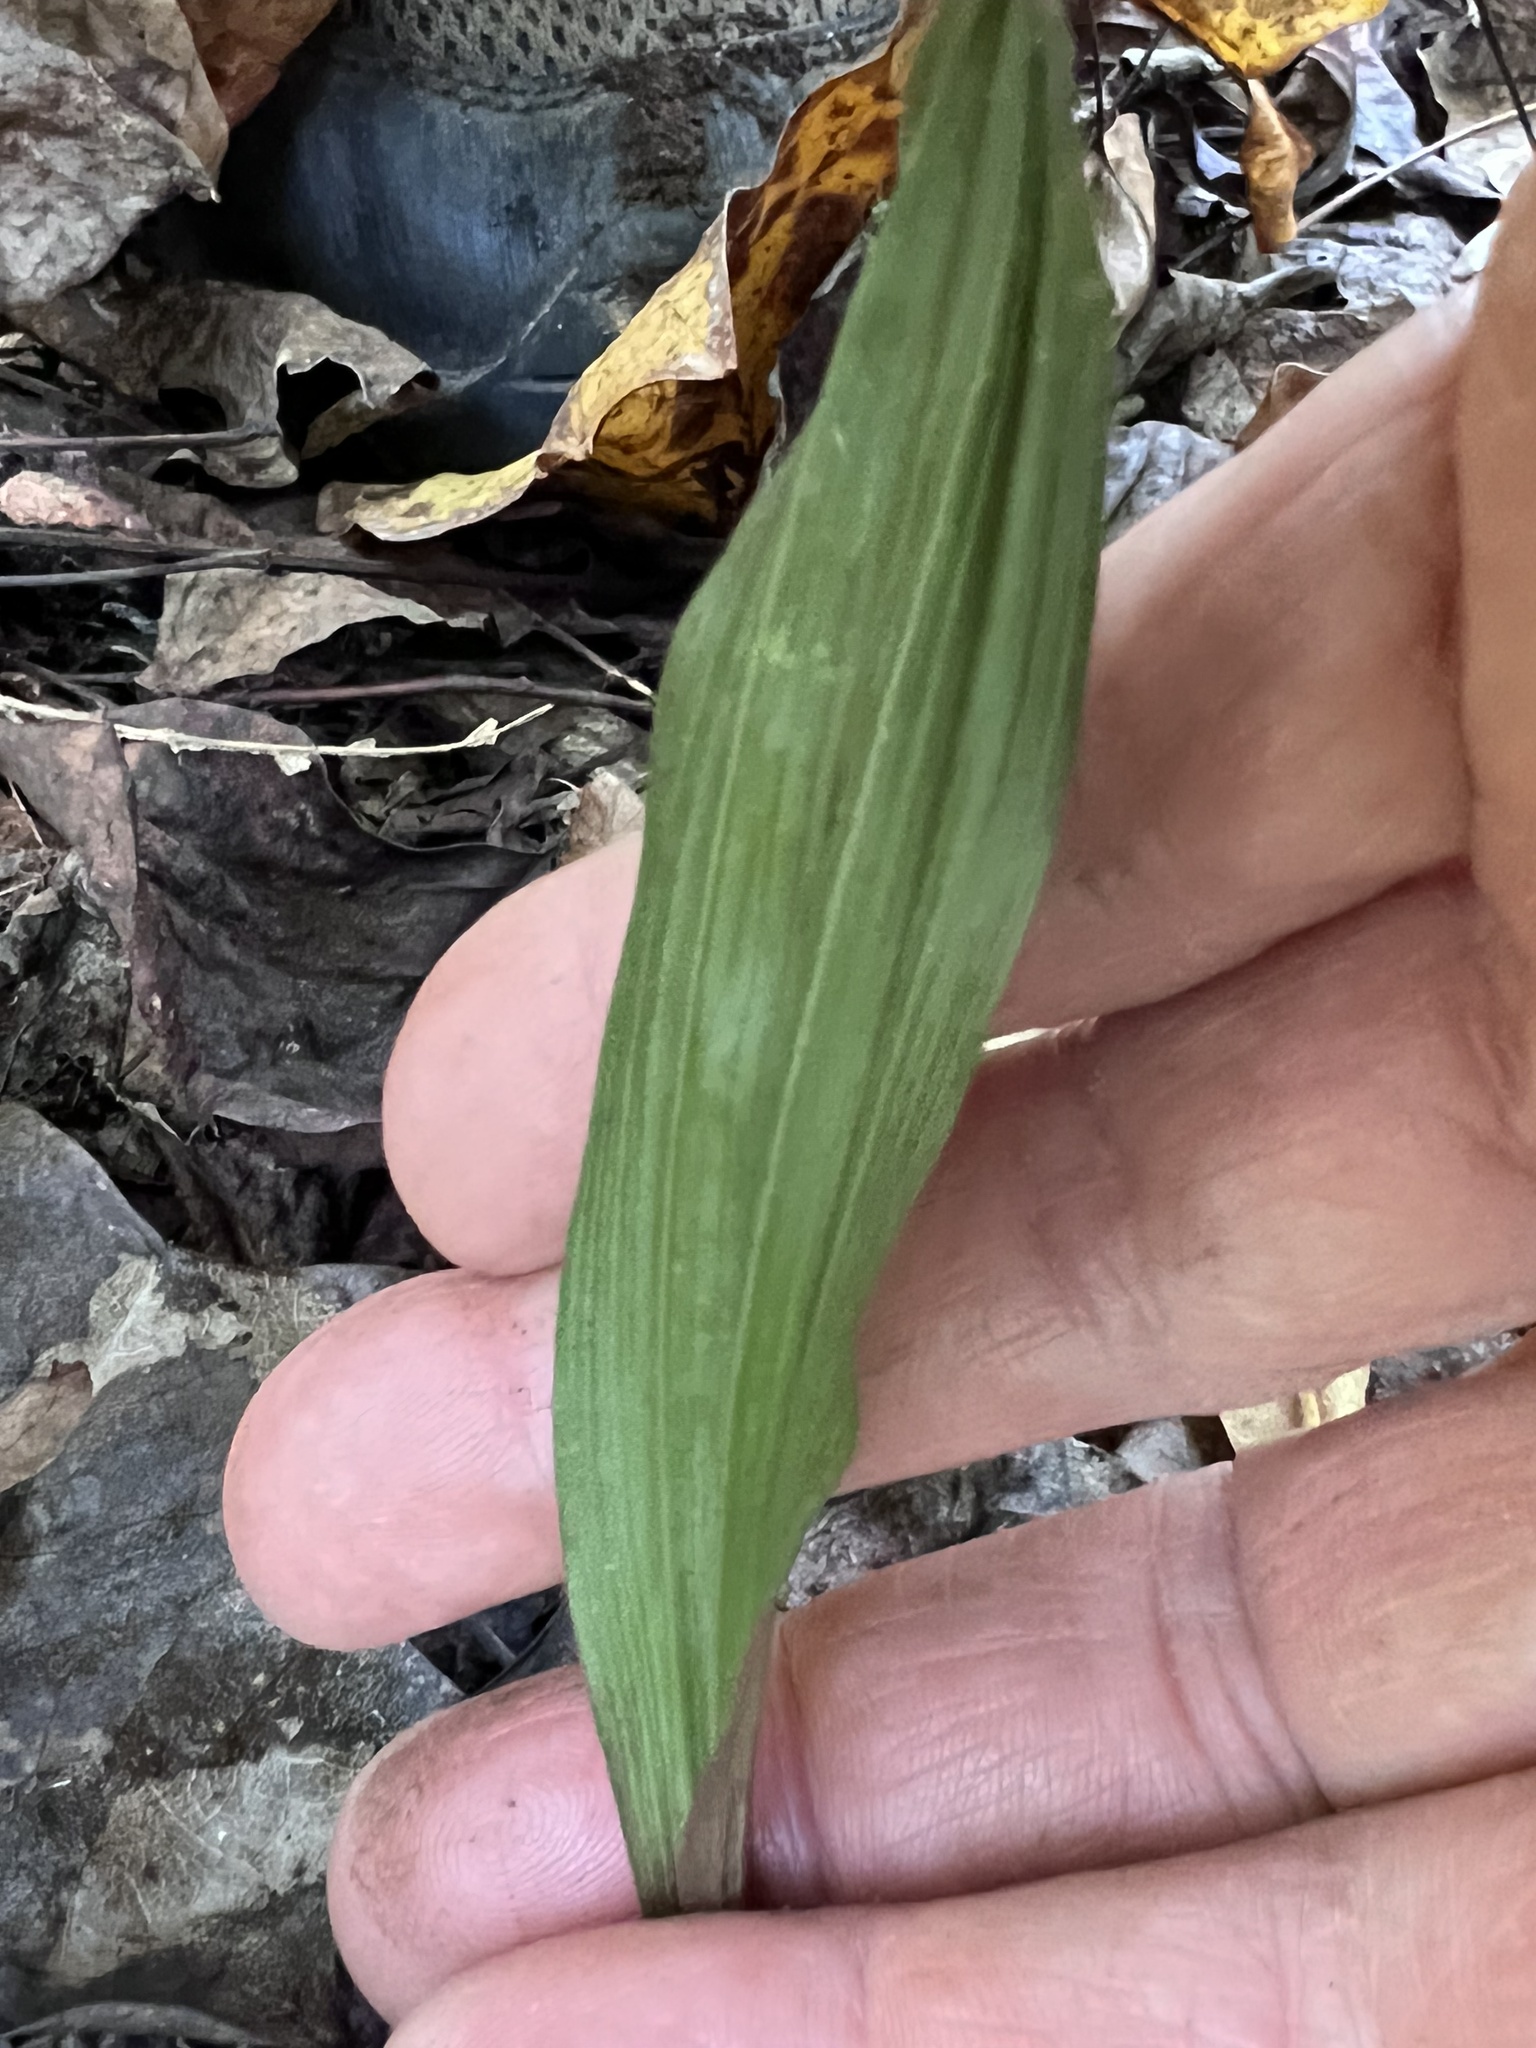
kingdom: Plantae
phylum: Tracheophyta
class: Liliopsida
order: Asparagales
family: Orchidaceae
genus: Aplectrum
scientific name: Aplectrum hyemale
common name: Adam-and-eve
